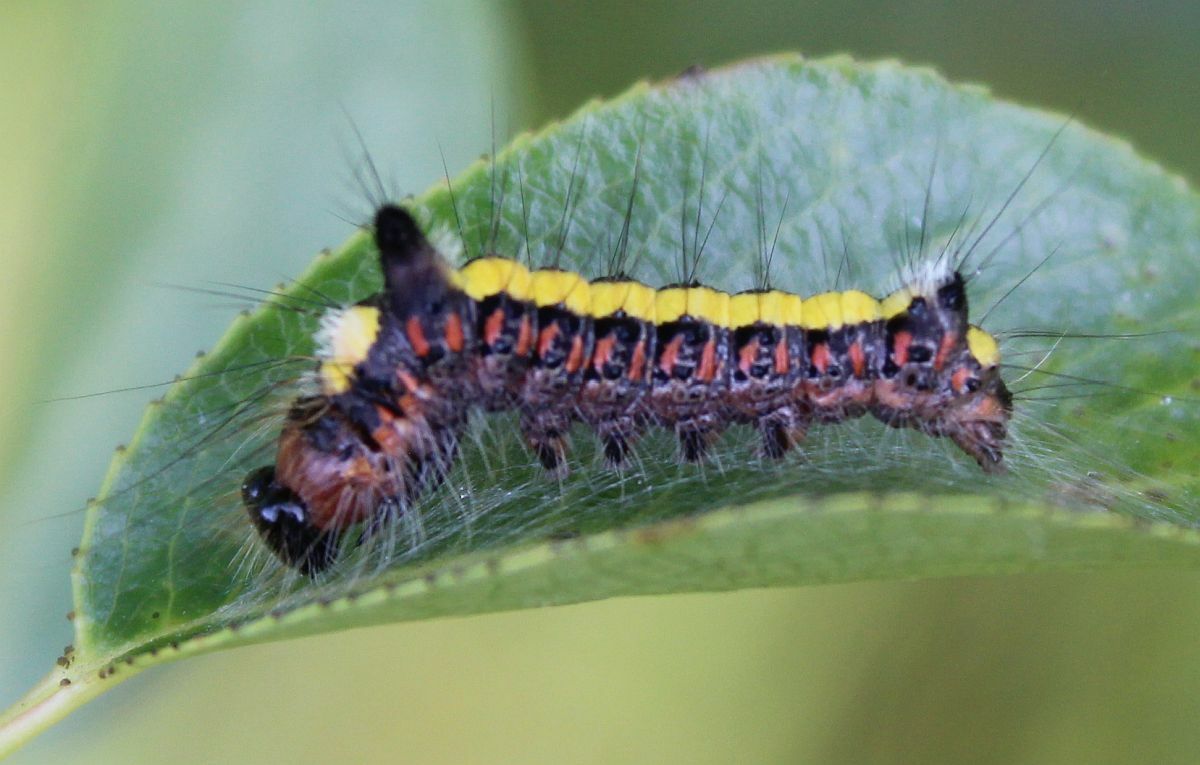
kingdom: Animalia
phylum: Arthropoda
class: Insecta
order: Lepidoptera
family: Noctuidae
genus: Acronicta
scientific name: Acronicta psi
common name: Grey dagger
